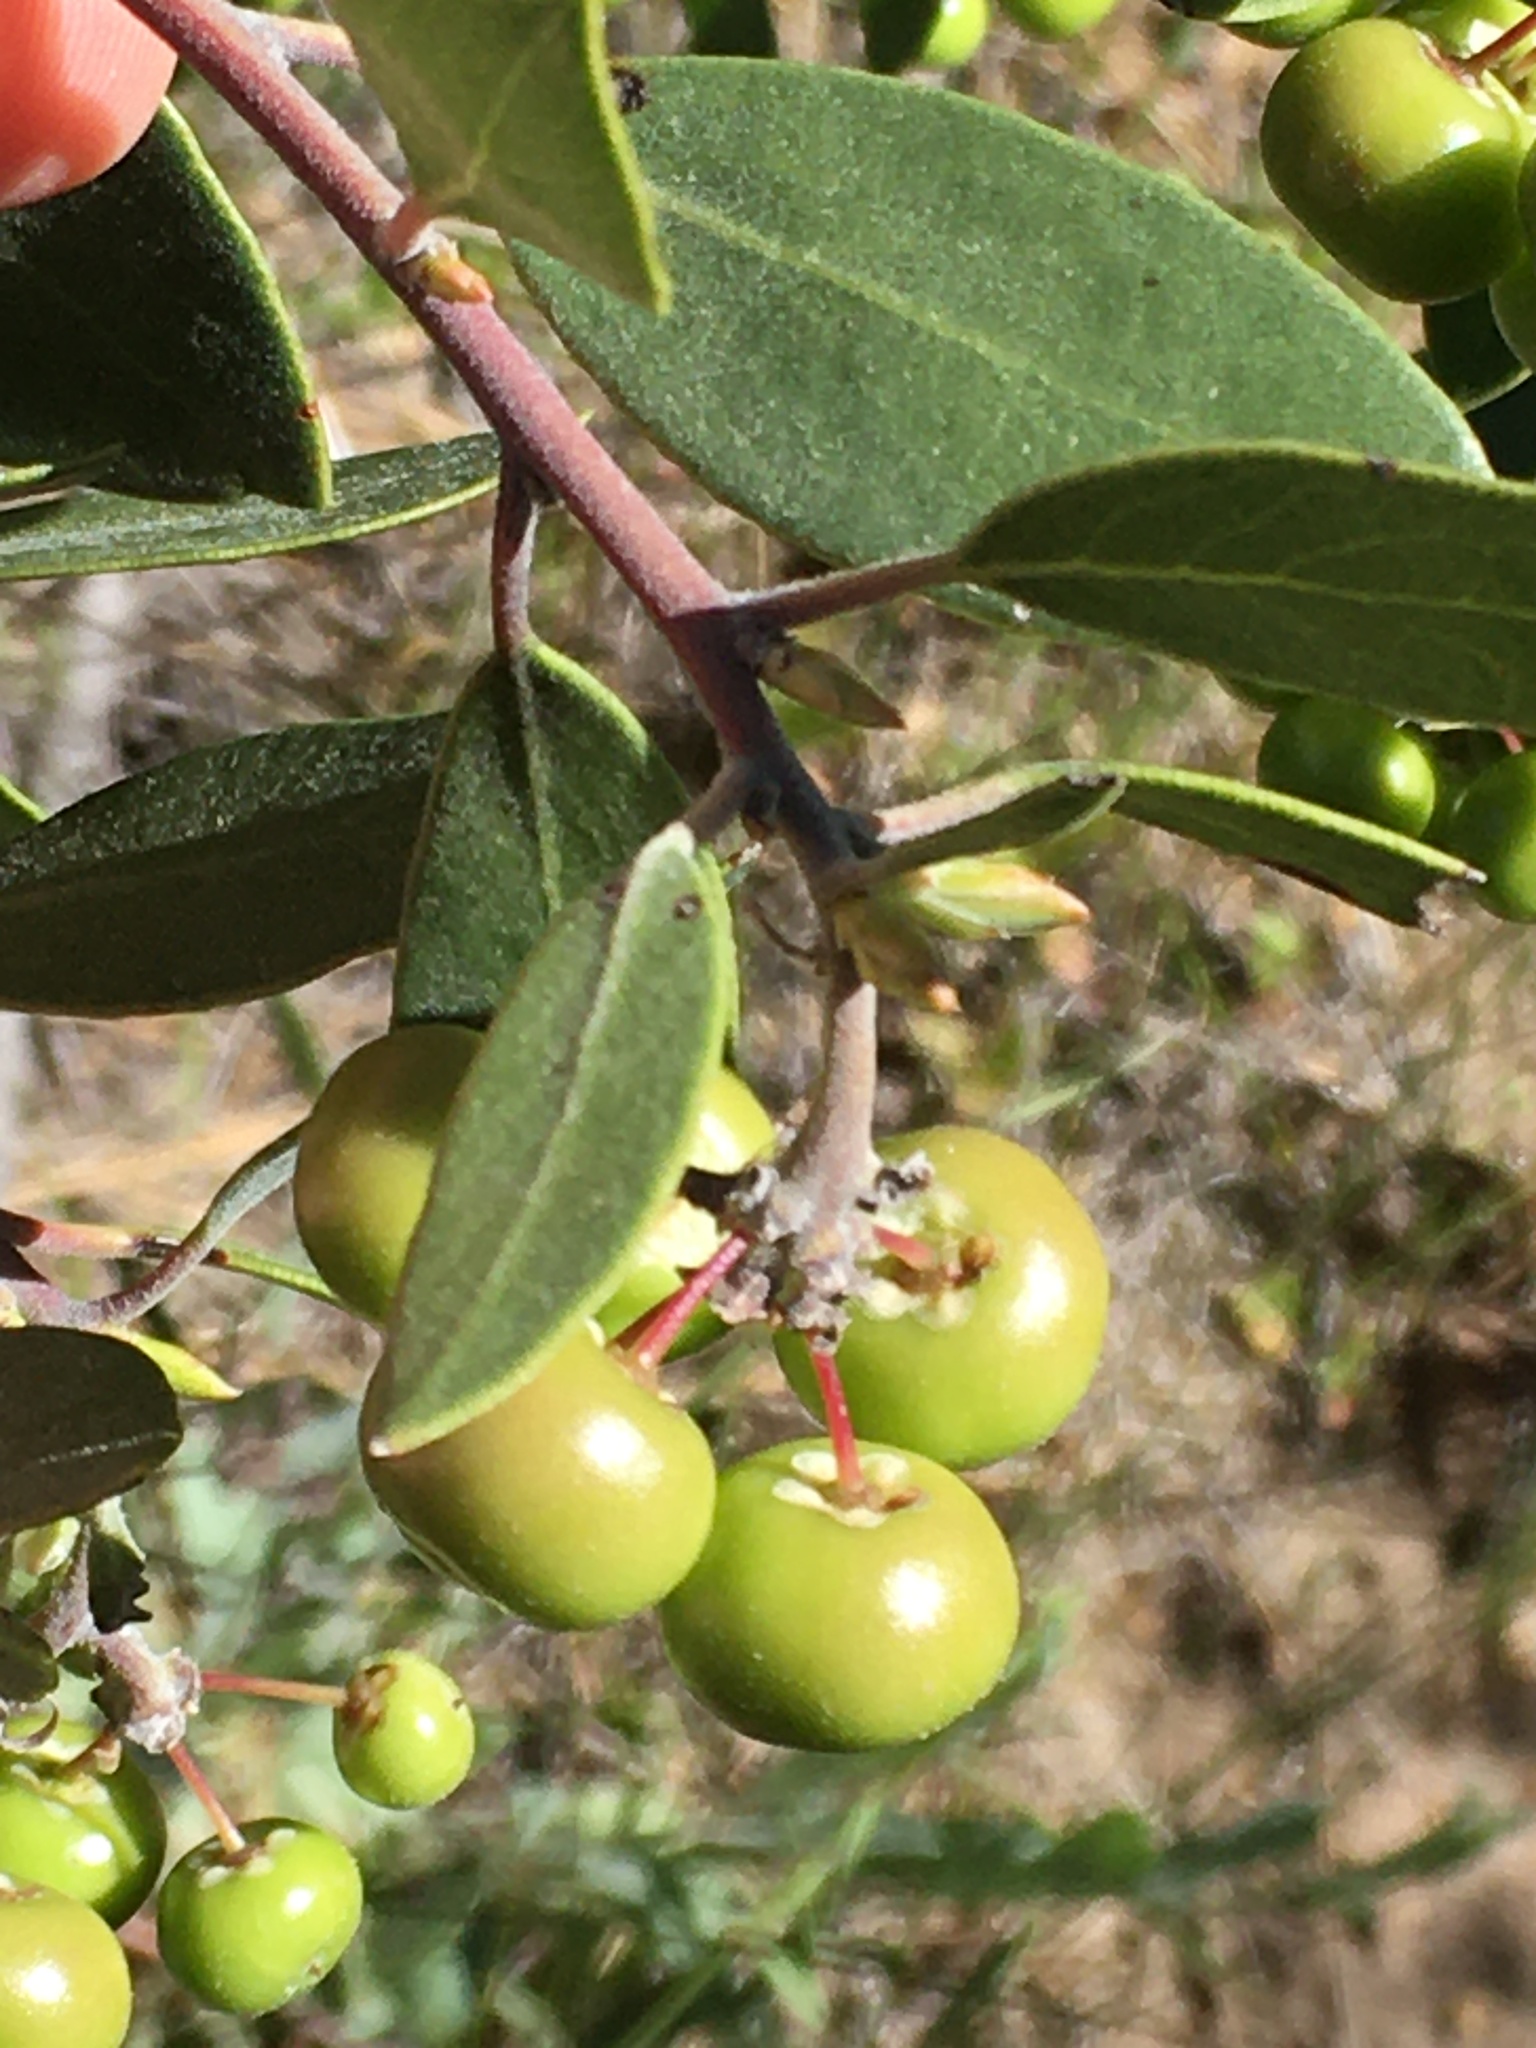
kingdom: Plantae
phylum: Tracheophyta
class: Magnoliopsida
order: Ericales
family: Ericaceae
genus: Arctostaphylos
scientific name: Arctostaphylos pungens
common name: Mexican manzanita
